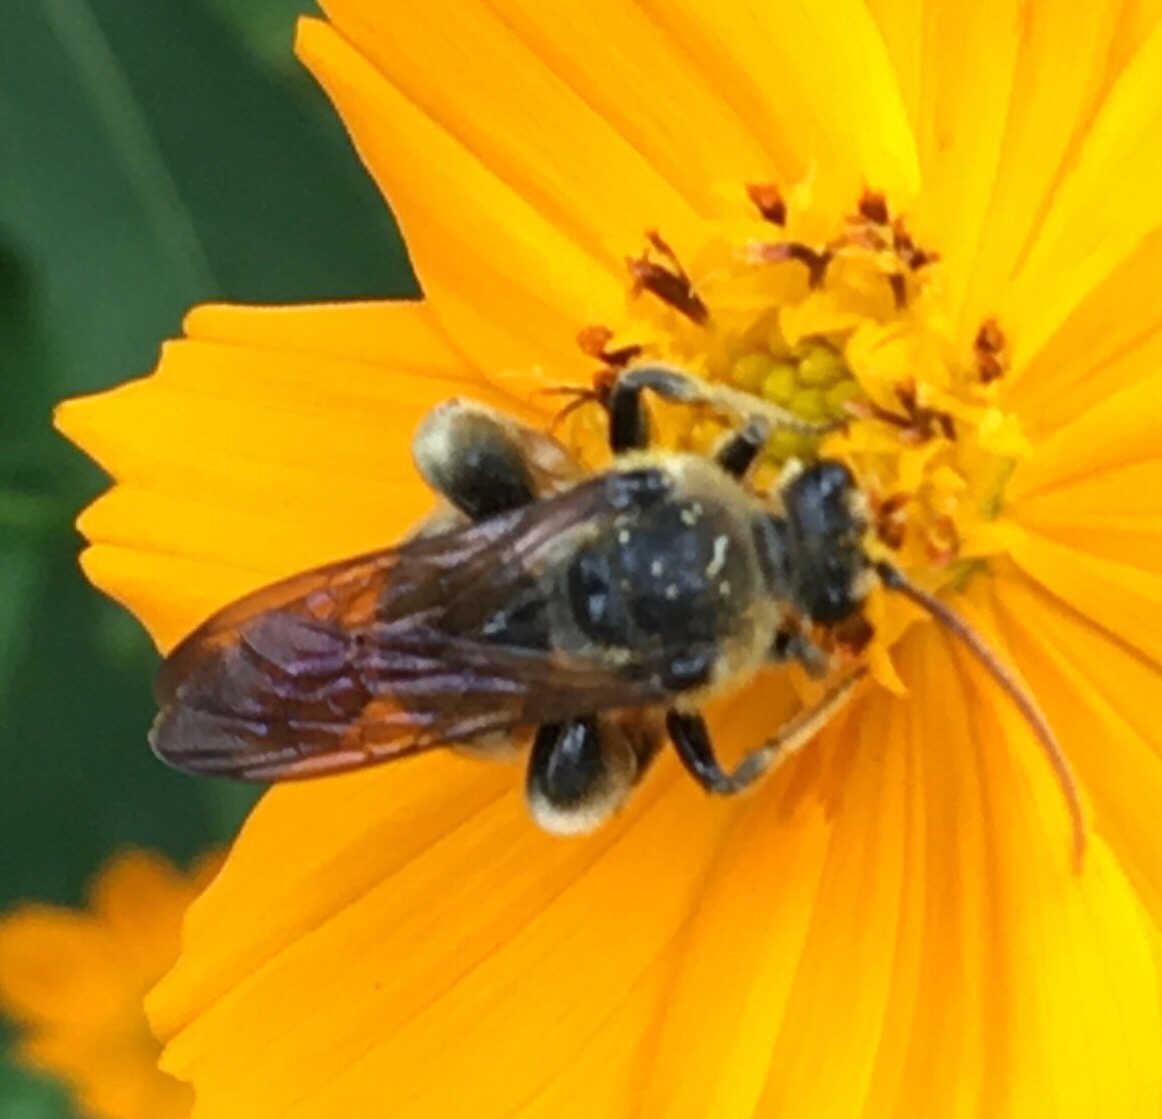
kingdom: Animalia
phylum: Arthropoda
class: Insecta
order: Hymenoptera
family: Halictidae
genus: Nomia
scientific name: Nomia nortoni
